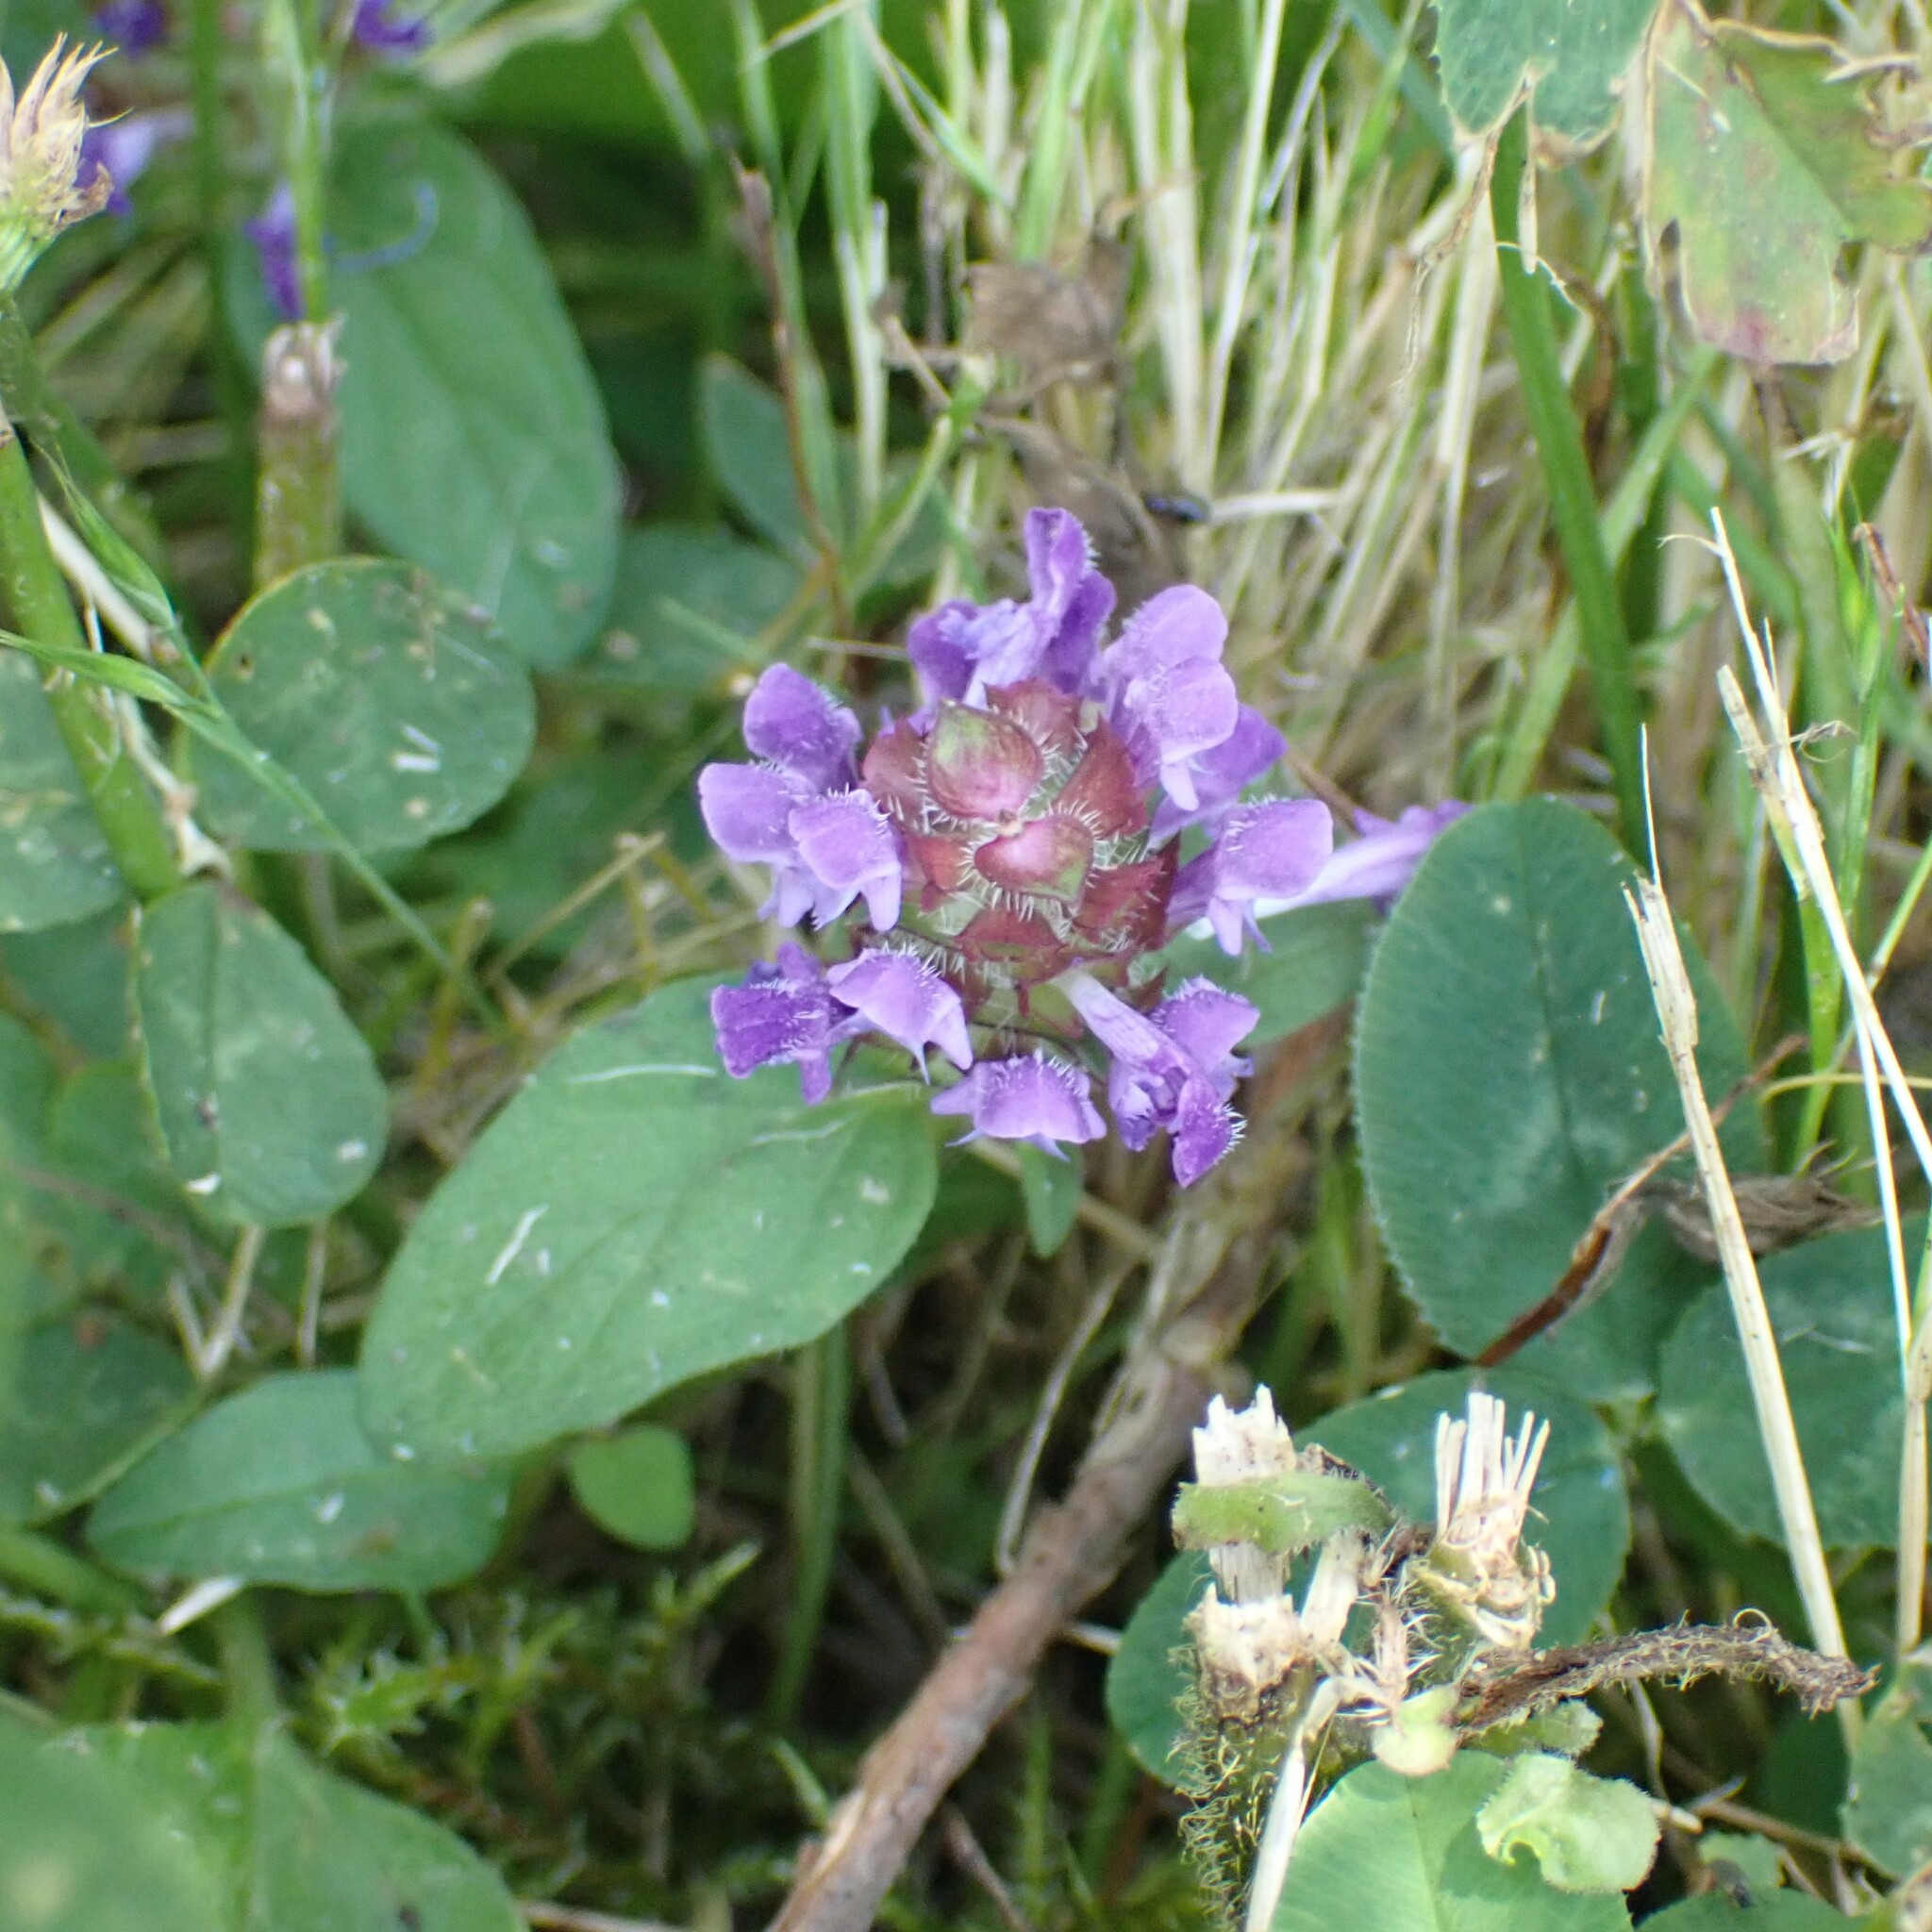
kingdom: Plantae
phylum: Tracheophyta
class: Magnoliopsida
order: Lamiales
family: Lamiaceae
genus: Prunella
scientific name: Prunella vulgaris
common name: Heal-all
